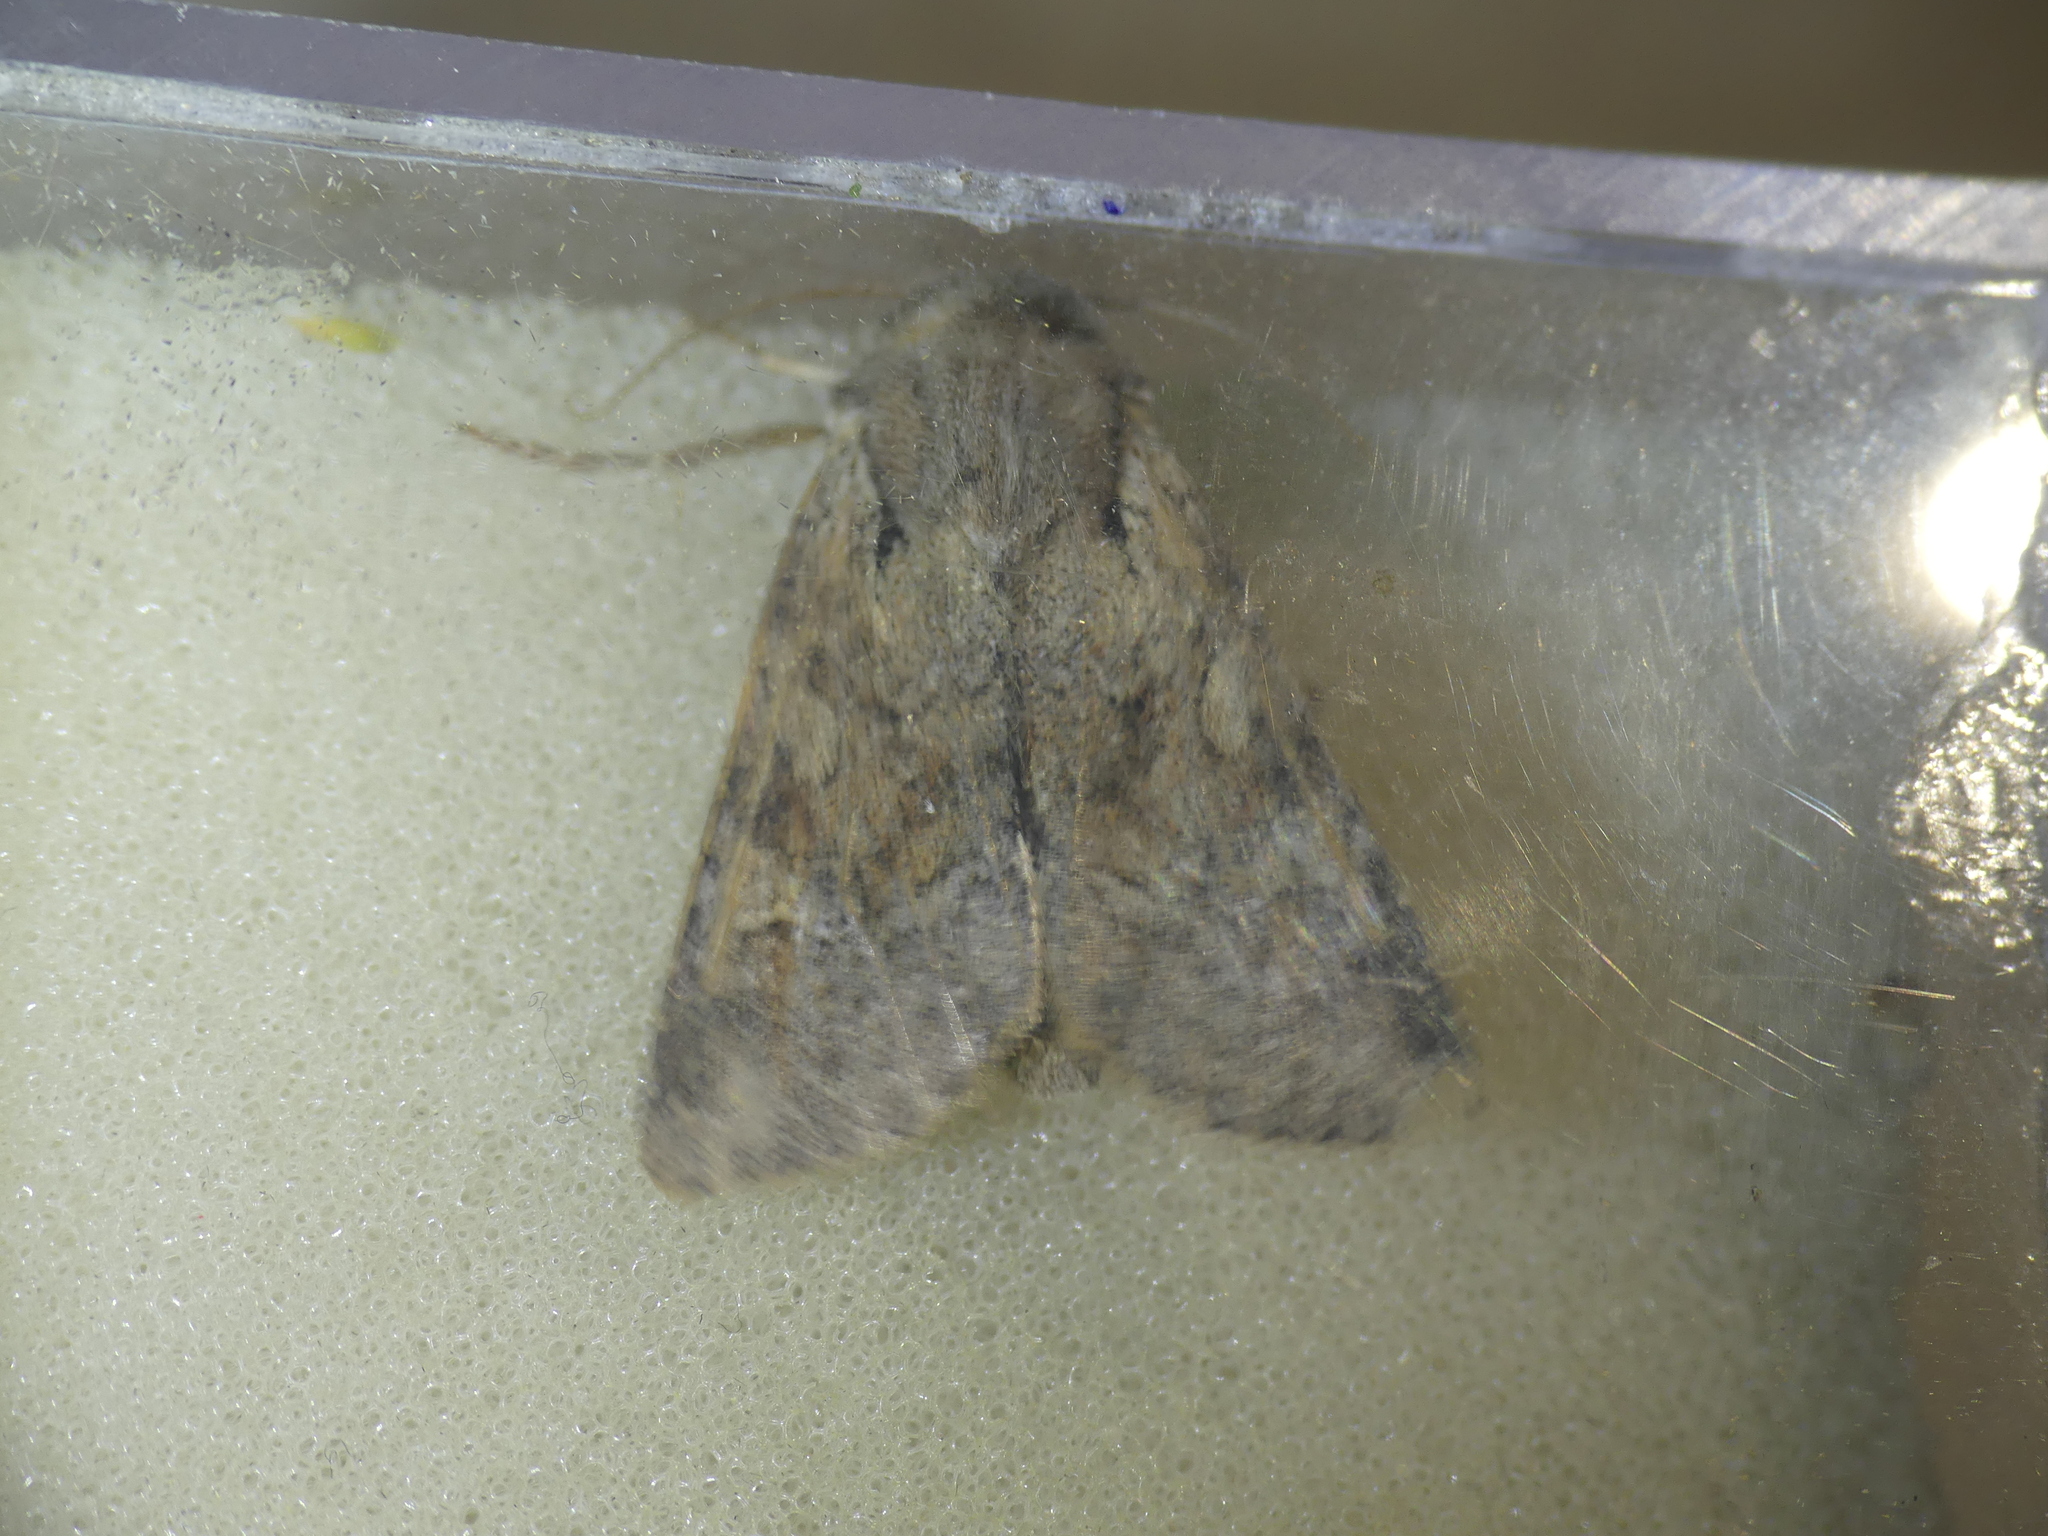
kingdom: Animalia
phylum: Arthropoda
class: Insecta
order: Lepidoptera
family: Noctuidae
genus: Apamea
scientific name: Apamea sordens
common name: Rustic shoulder-knot
